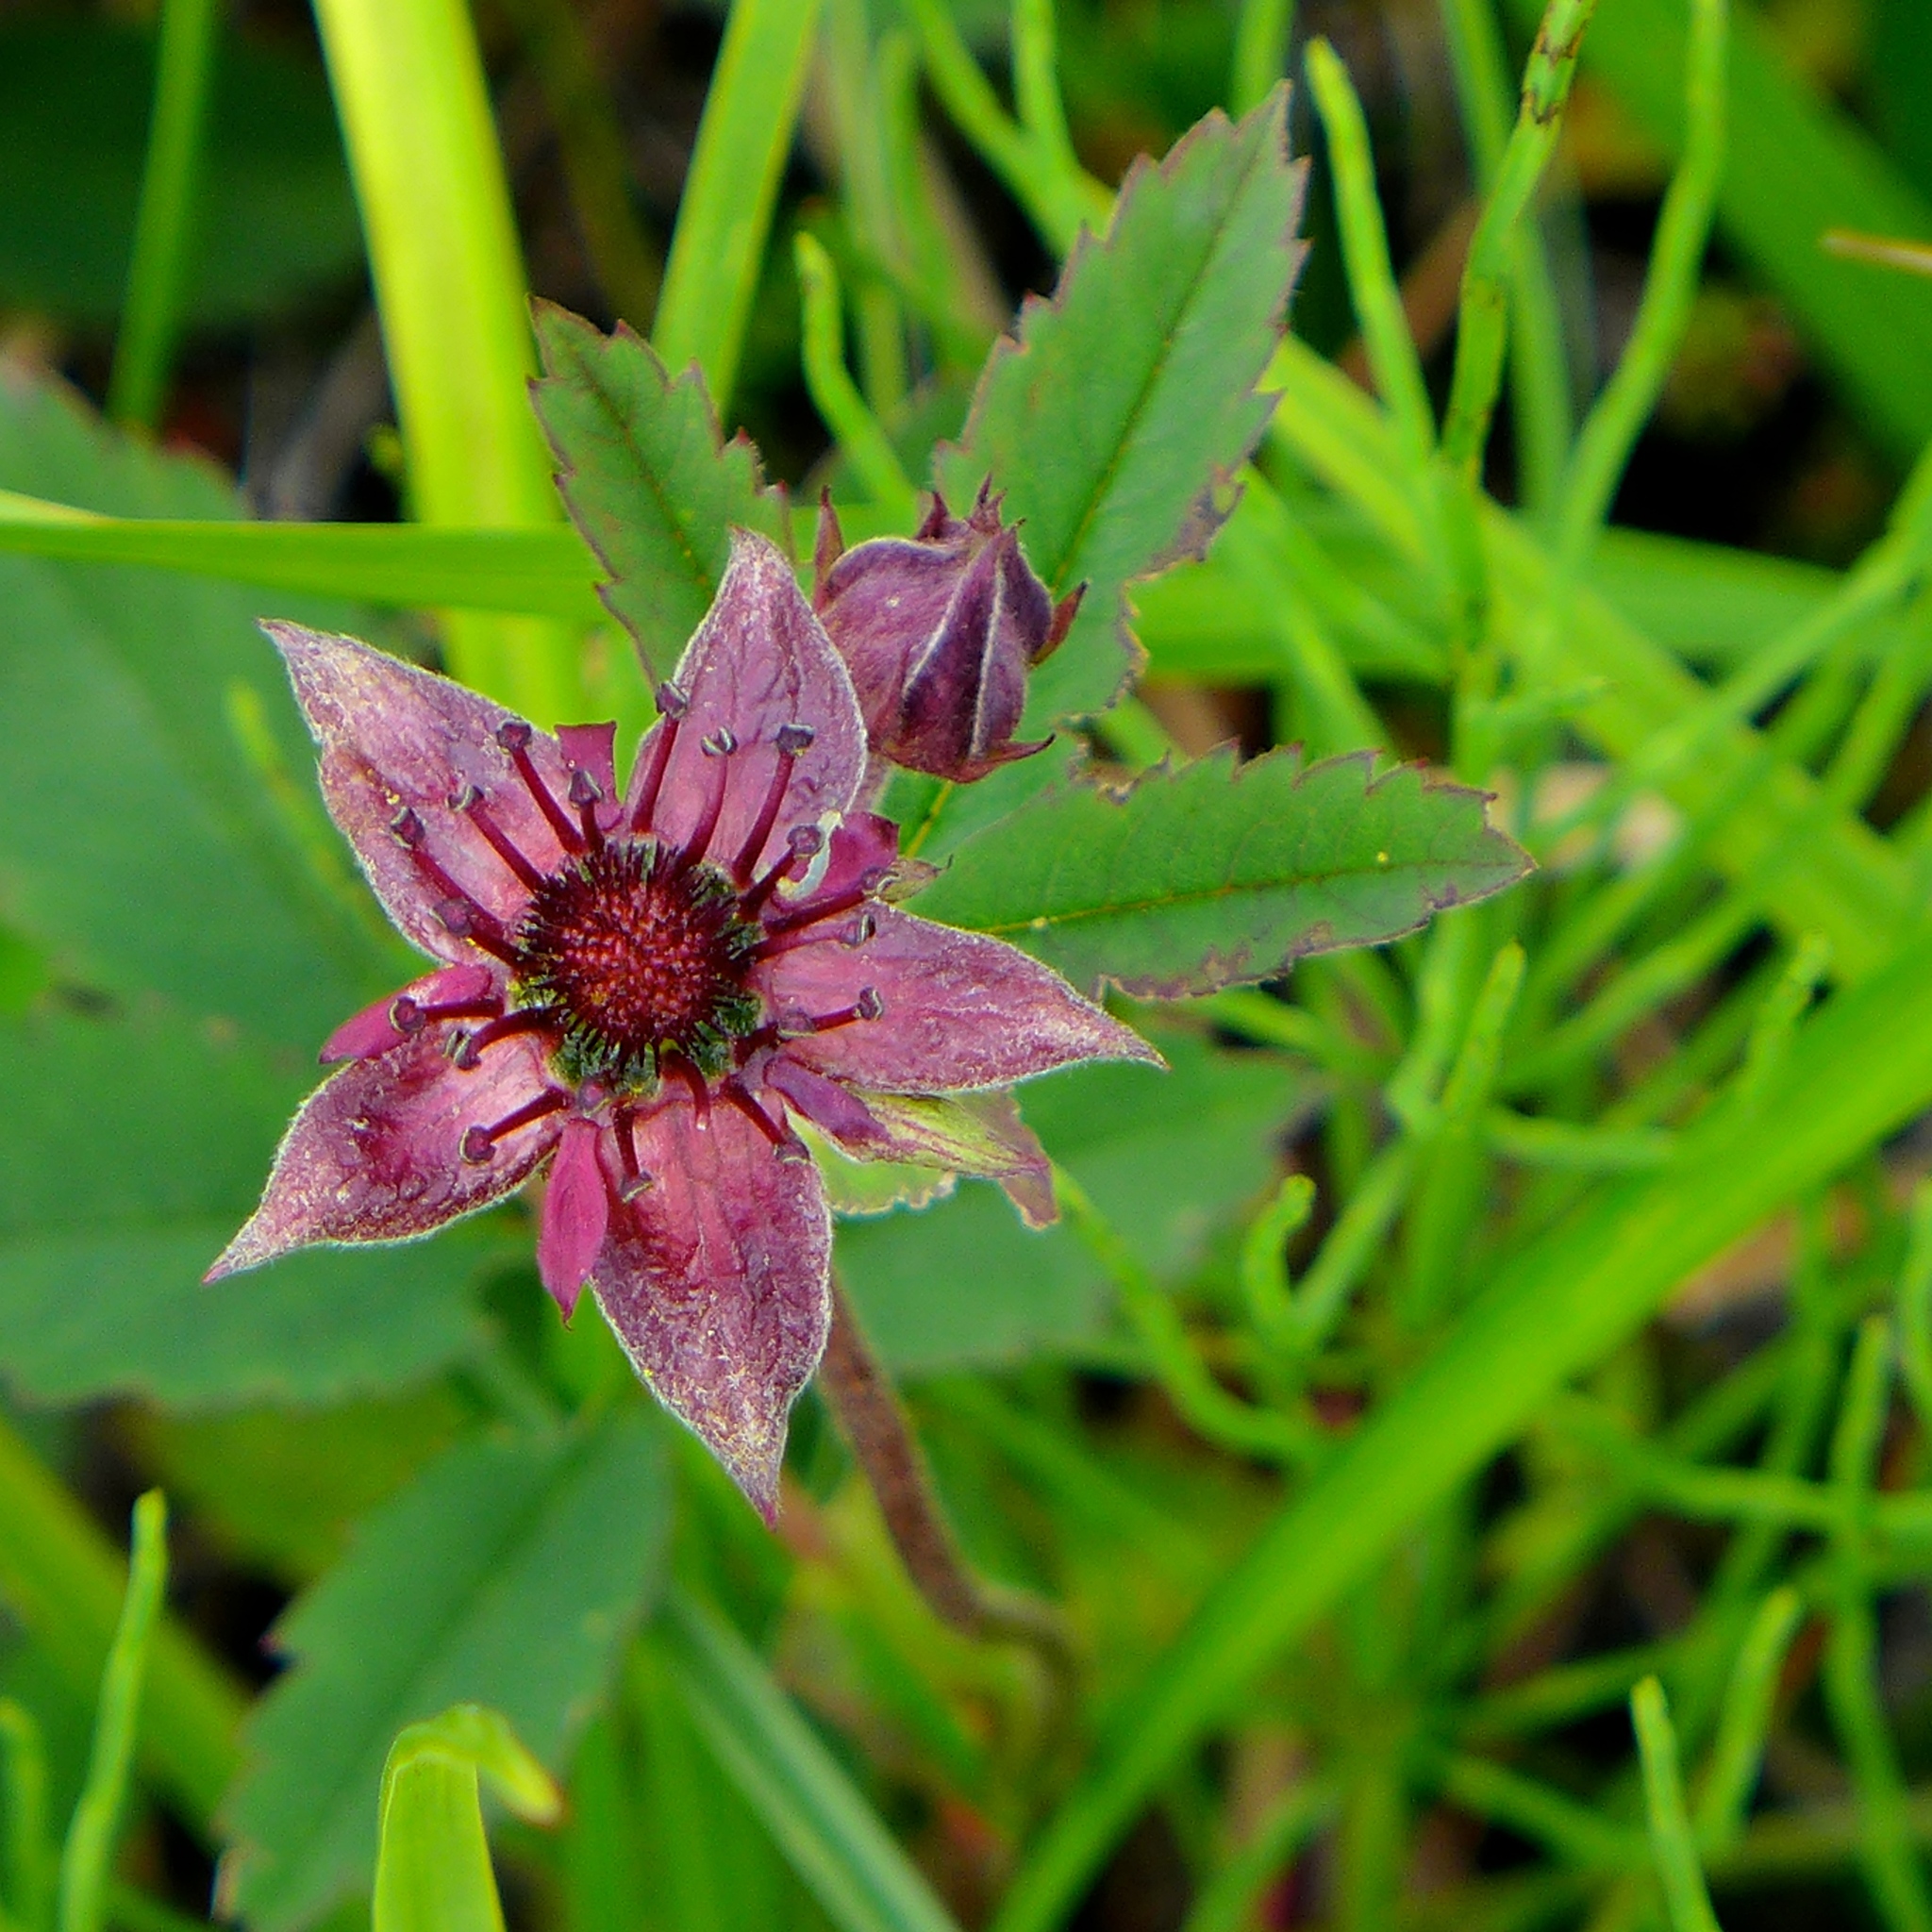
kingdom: Plantae
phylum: Tracheophyta
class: Magnoliopsida
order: Rosales
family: Rosaceae
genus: Comarum
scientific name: Comarum palustre
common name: Marsh cinquefoil
